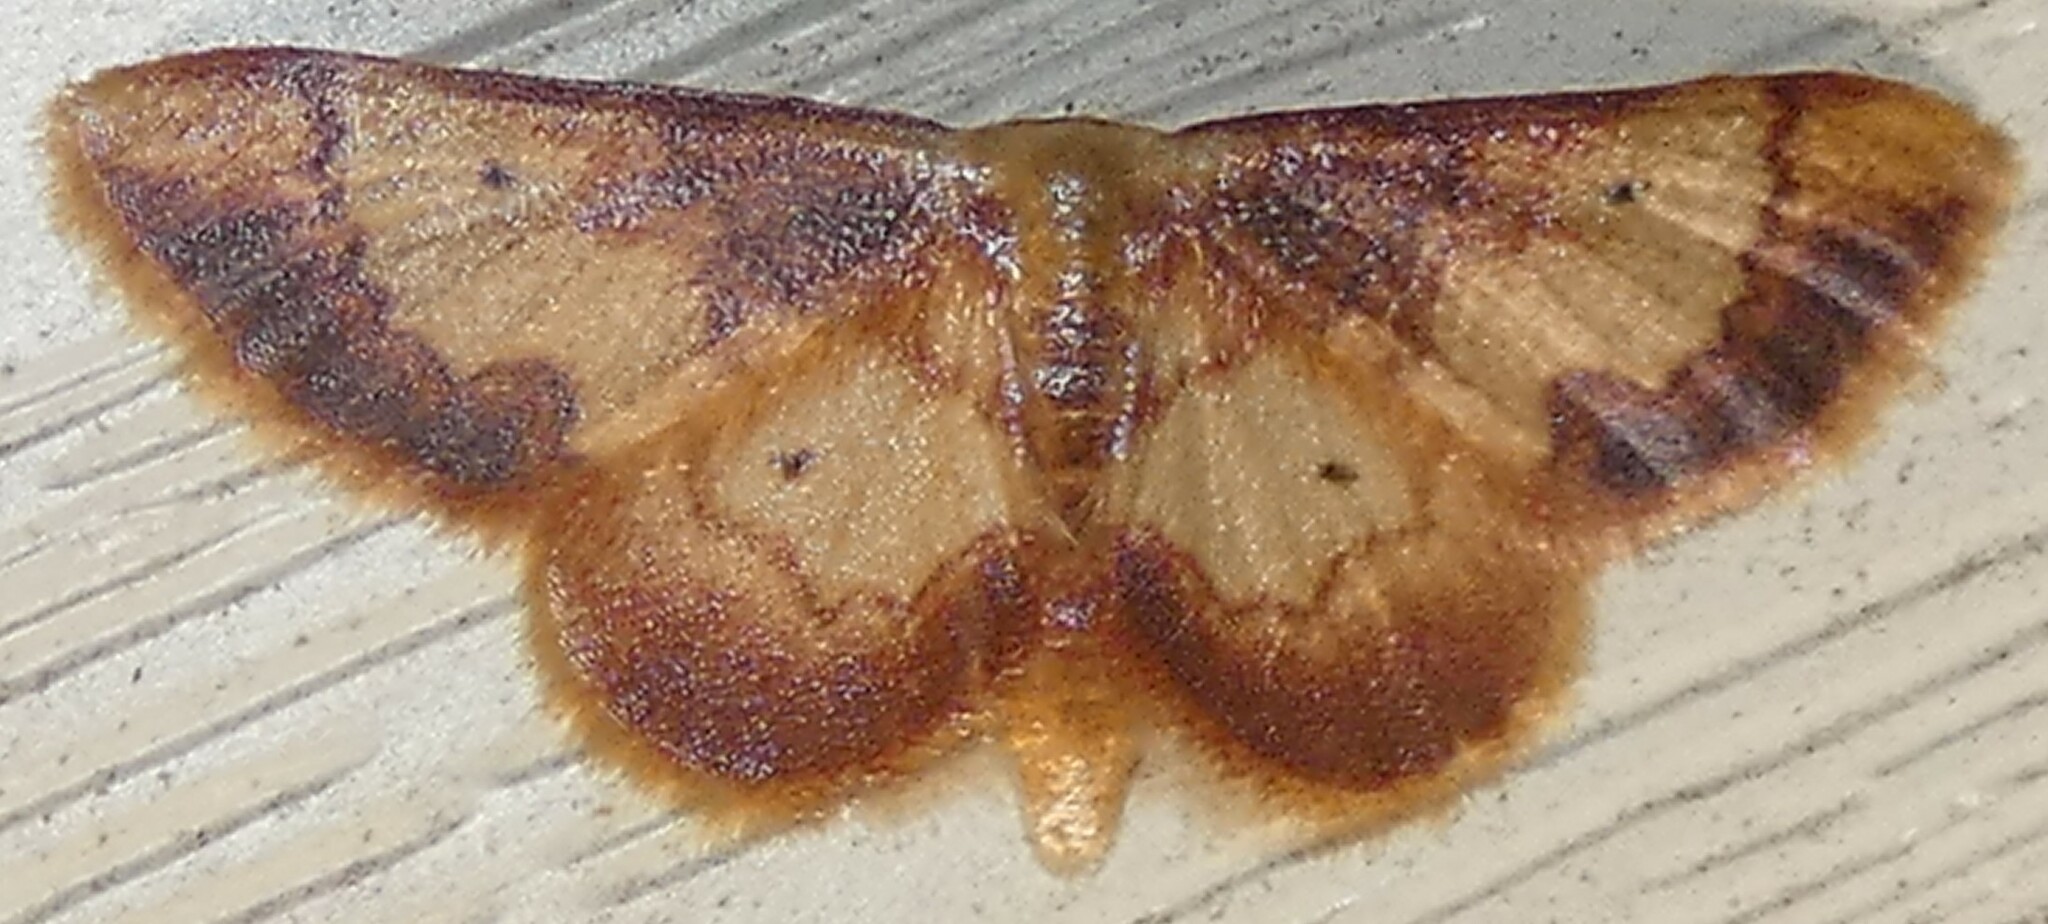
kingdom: Animalia
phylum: Arthropoda
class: Insecta
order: Lepidoptera
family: Geometridae
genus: Idaea
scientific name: Idaea demissaria
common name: Red-bordered wave
